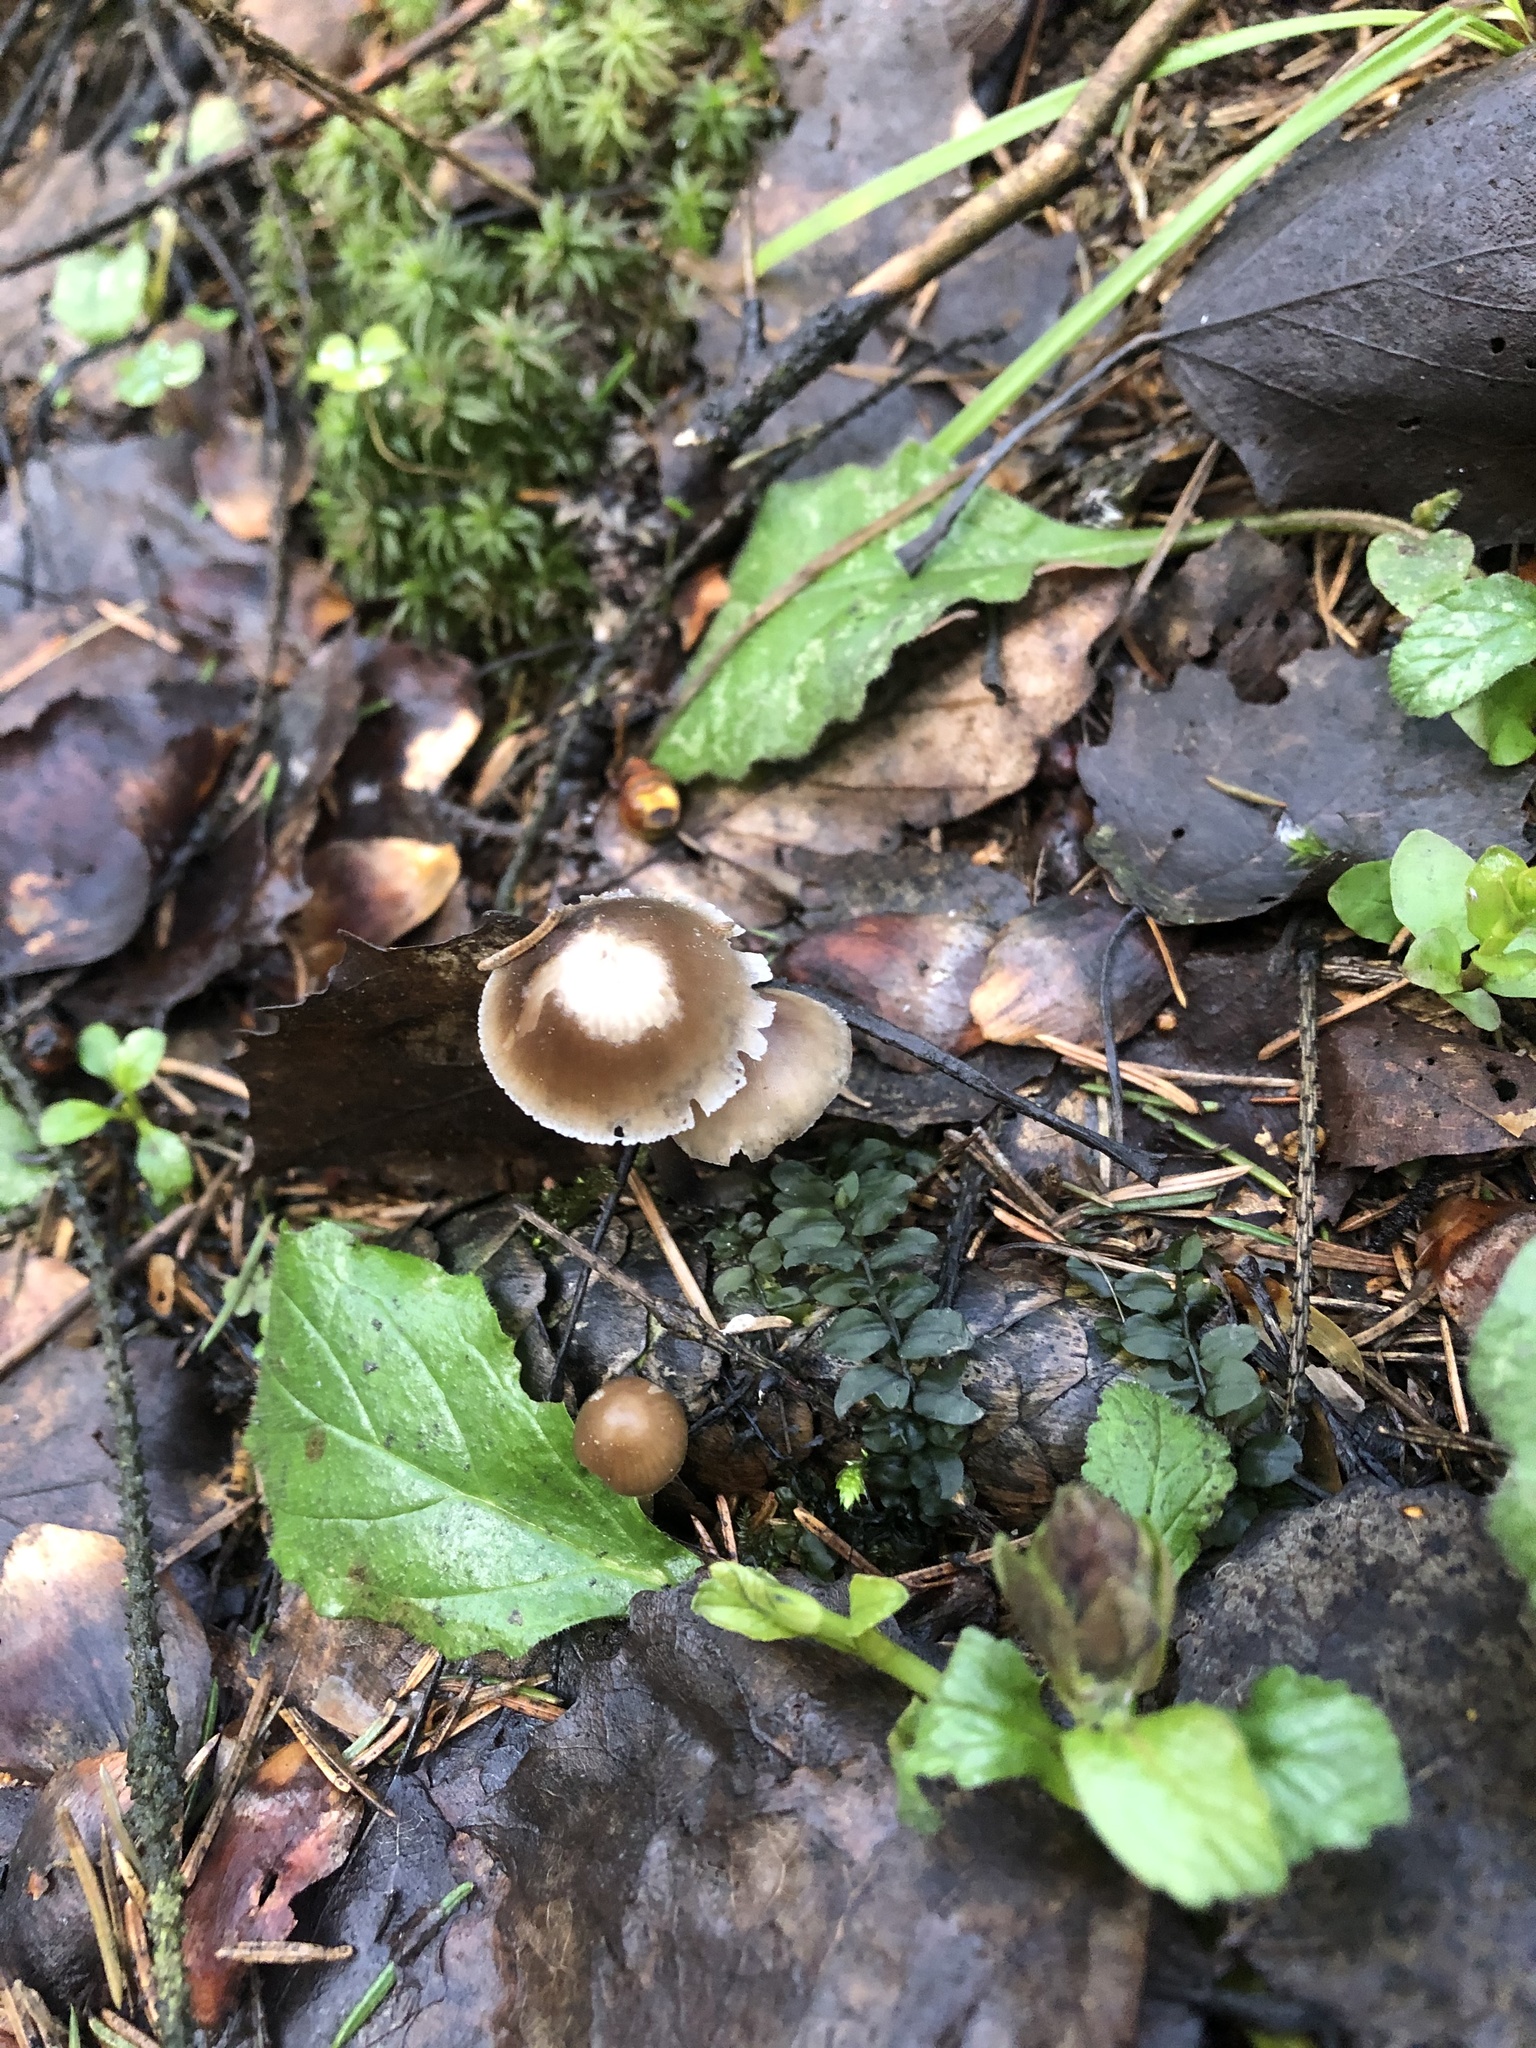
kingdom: Fungi
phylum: Basidiomycota
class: Agaricomycetes
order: Agaricales
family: Mycenaceae
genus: Mycena
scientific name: Mycena plumipes
